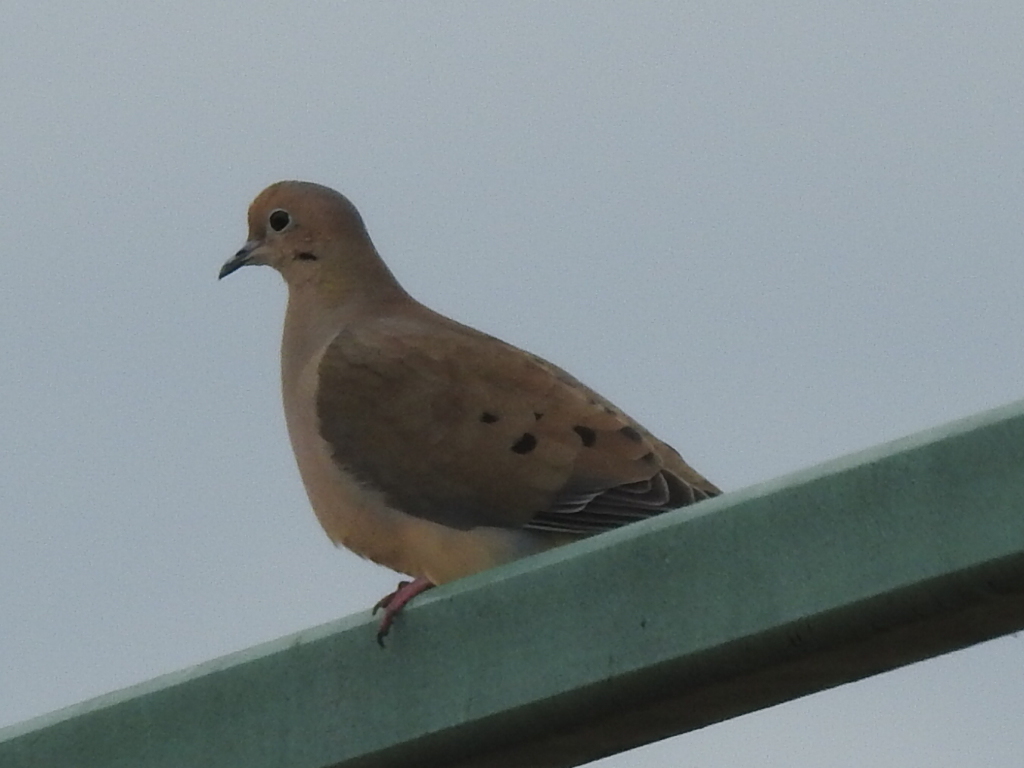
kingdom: Animalia
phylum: Chordata
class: Aves
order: Columbiformes
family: Columbidae
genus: Zenaida
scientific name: Zenaida macroura
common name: Mourning dove
